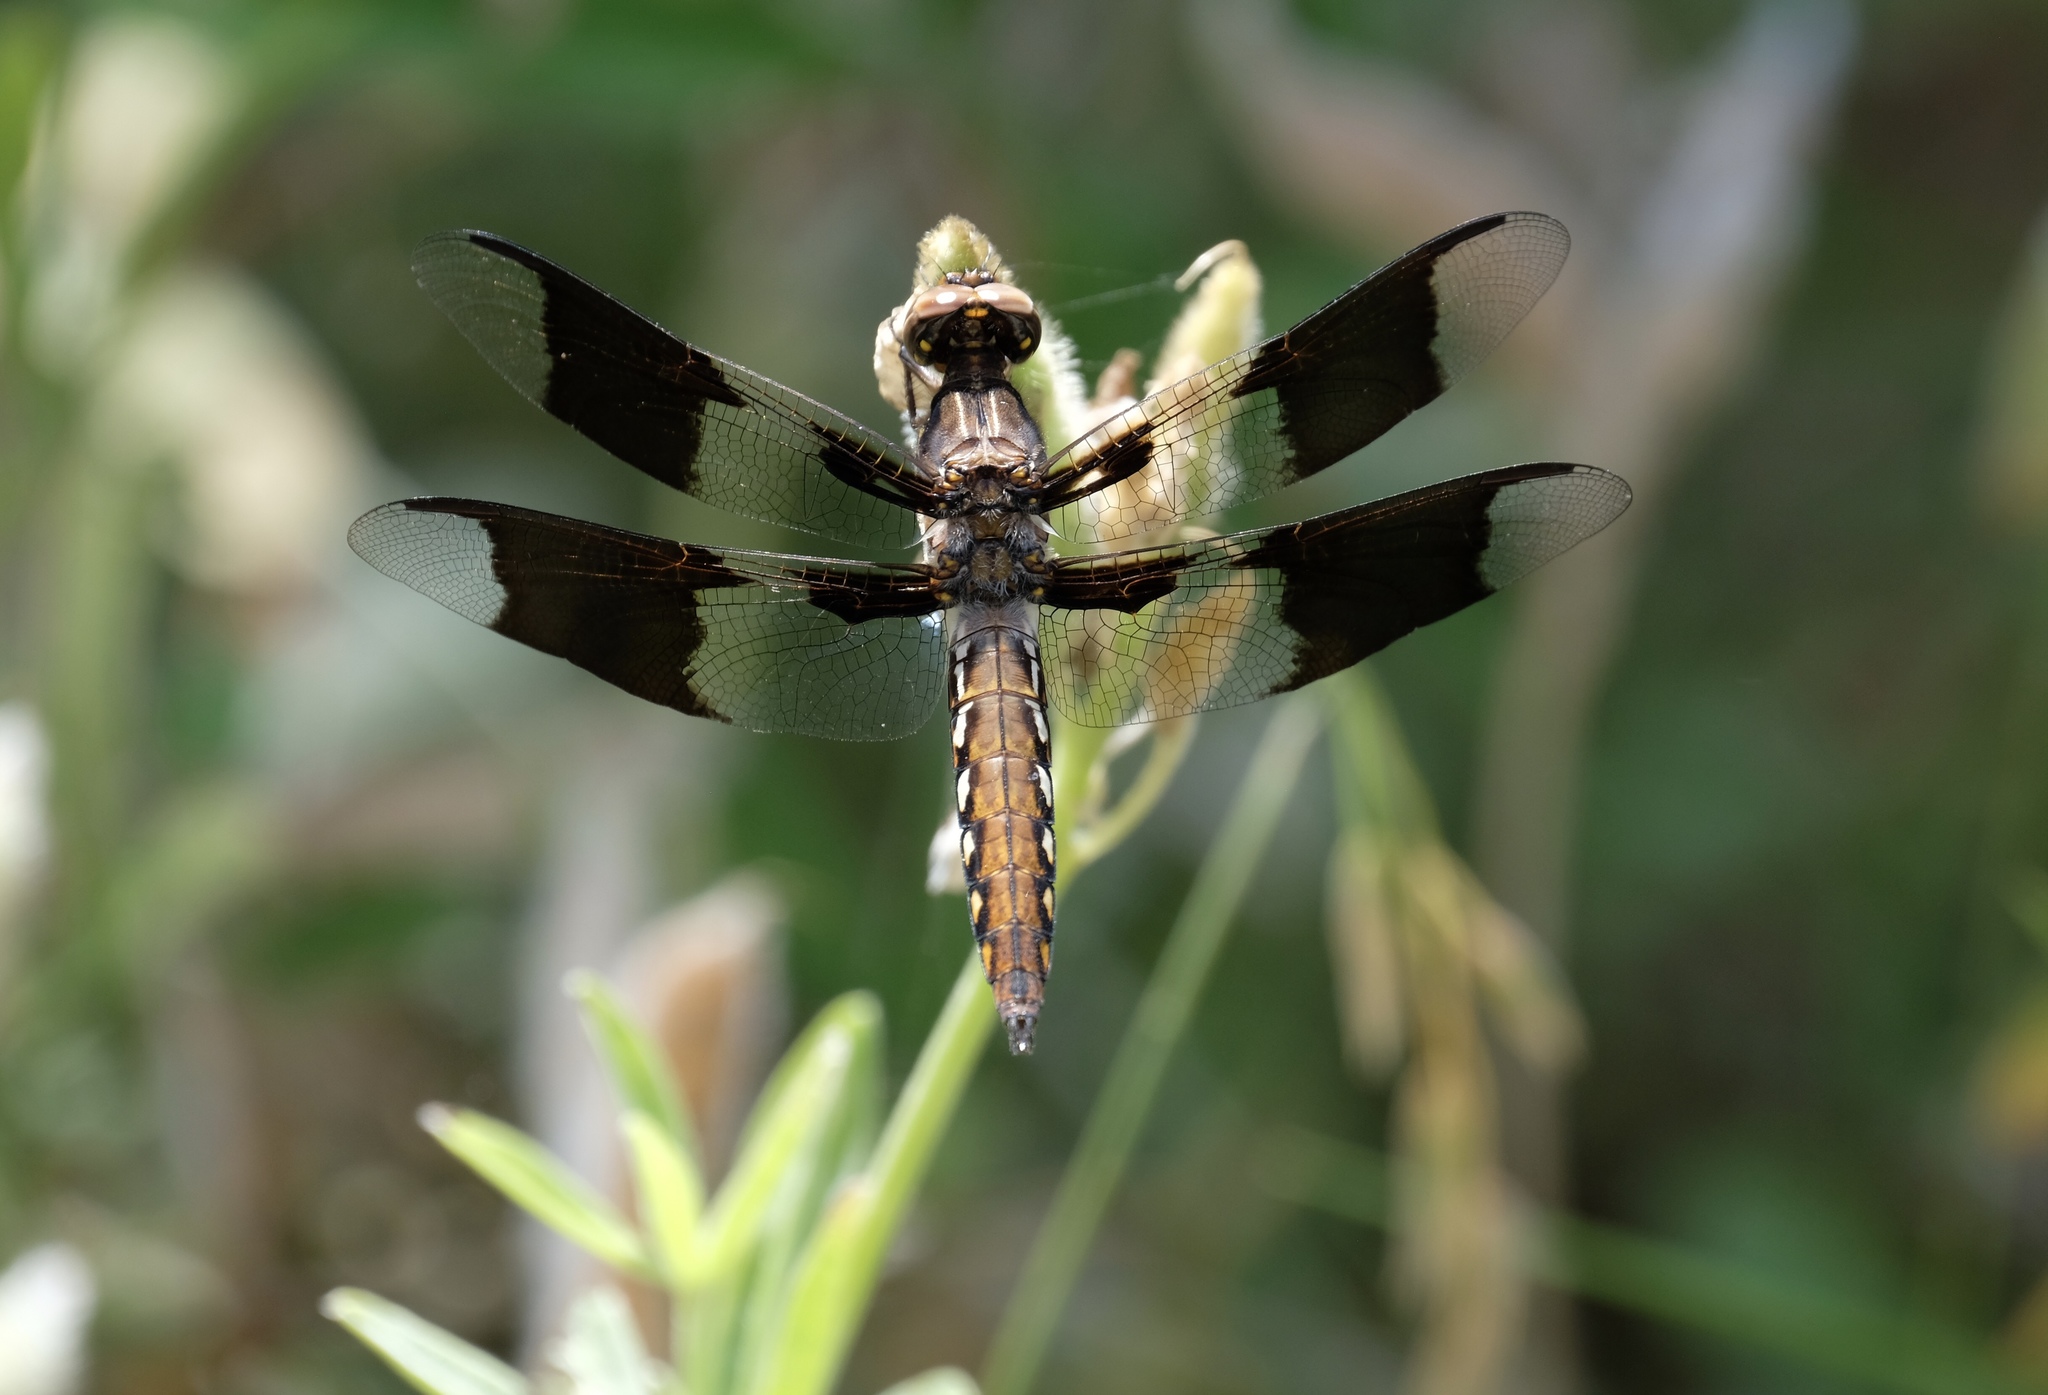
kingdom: Animalia
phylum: Arthropoda
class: Insecta
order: Odonata
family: Libellulidae
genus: Plathemis
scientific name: Plathemis lydia
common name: Common whitetail
